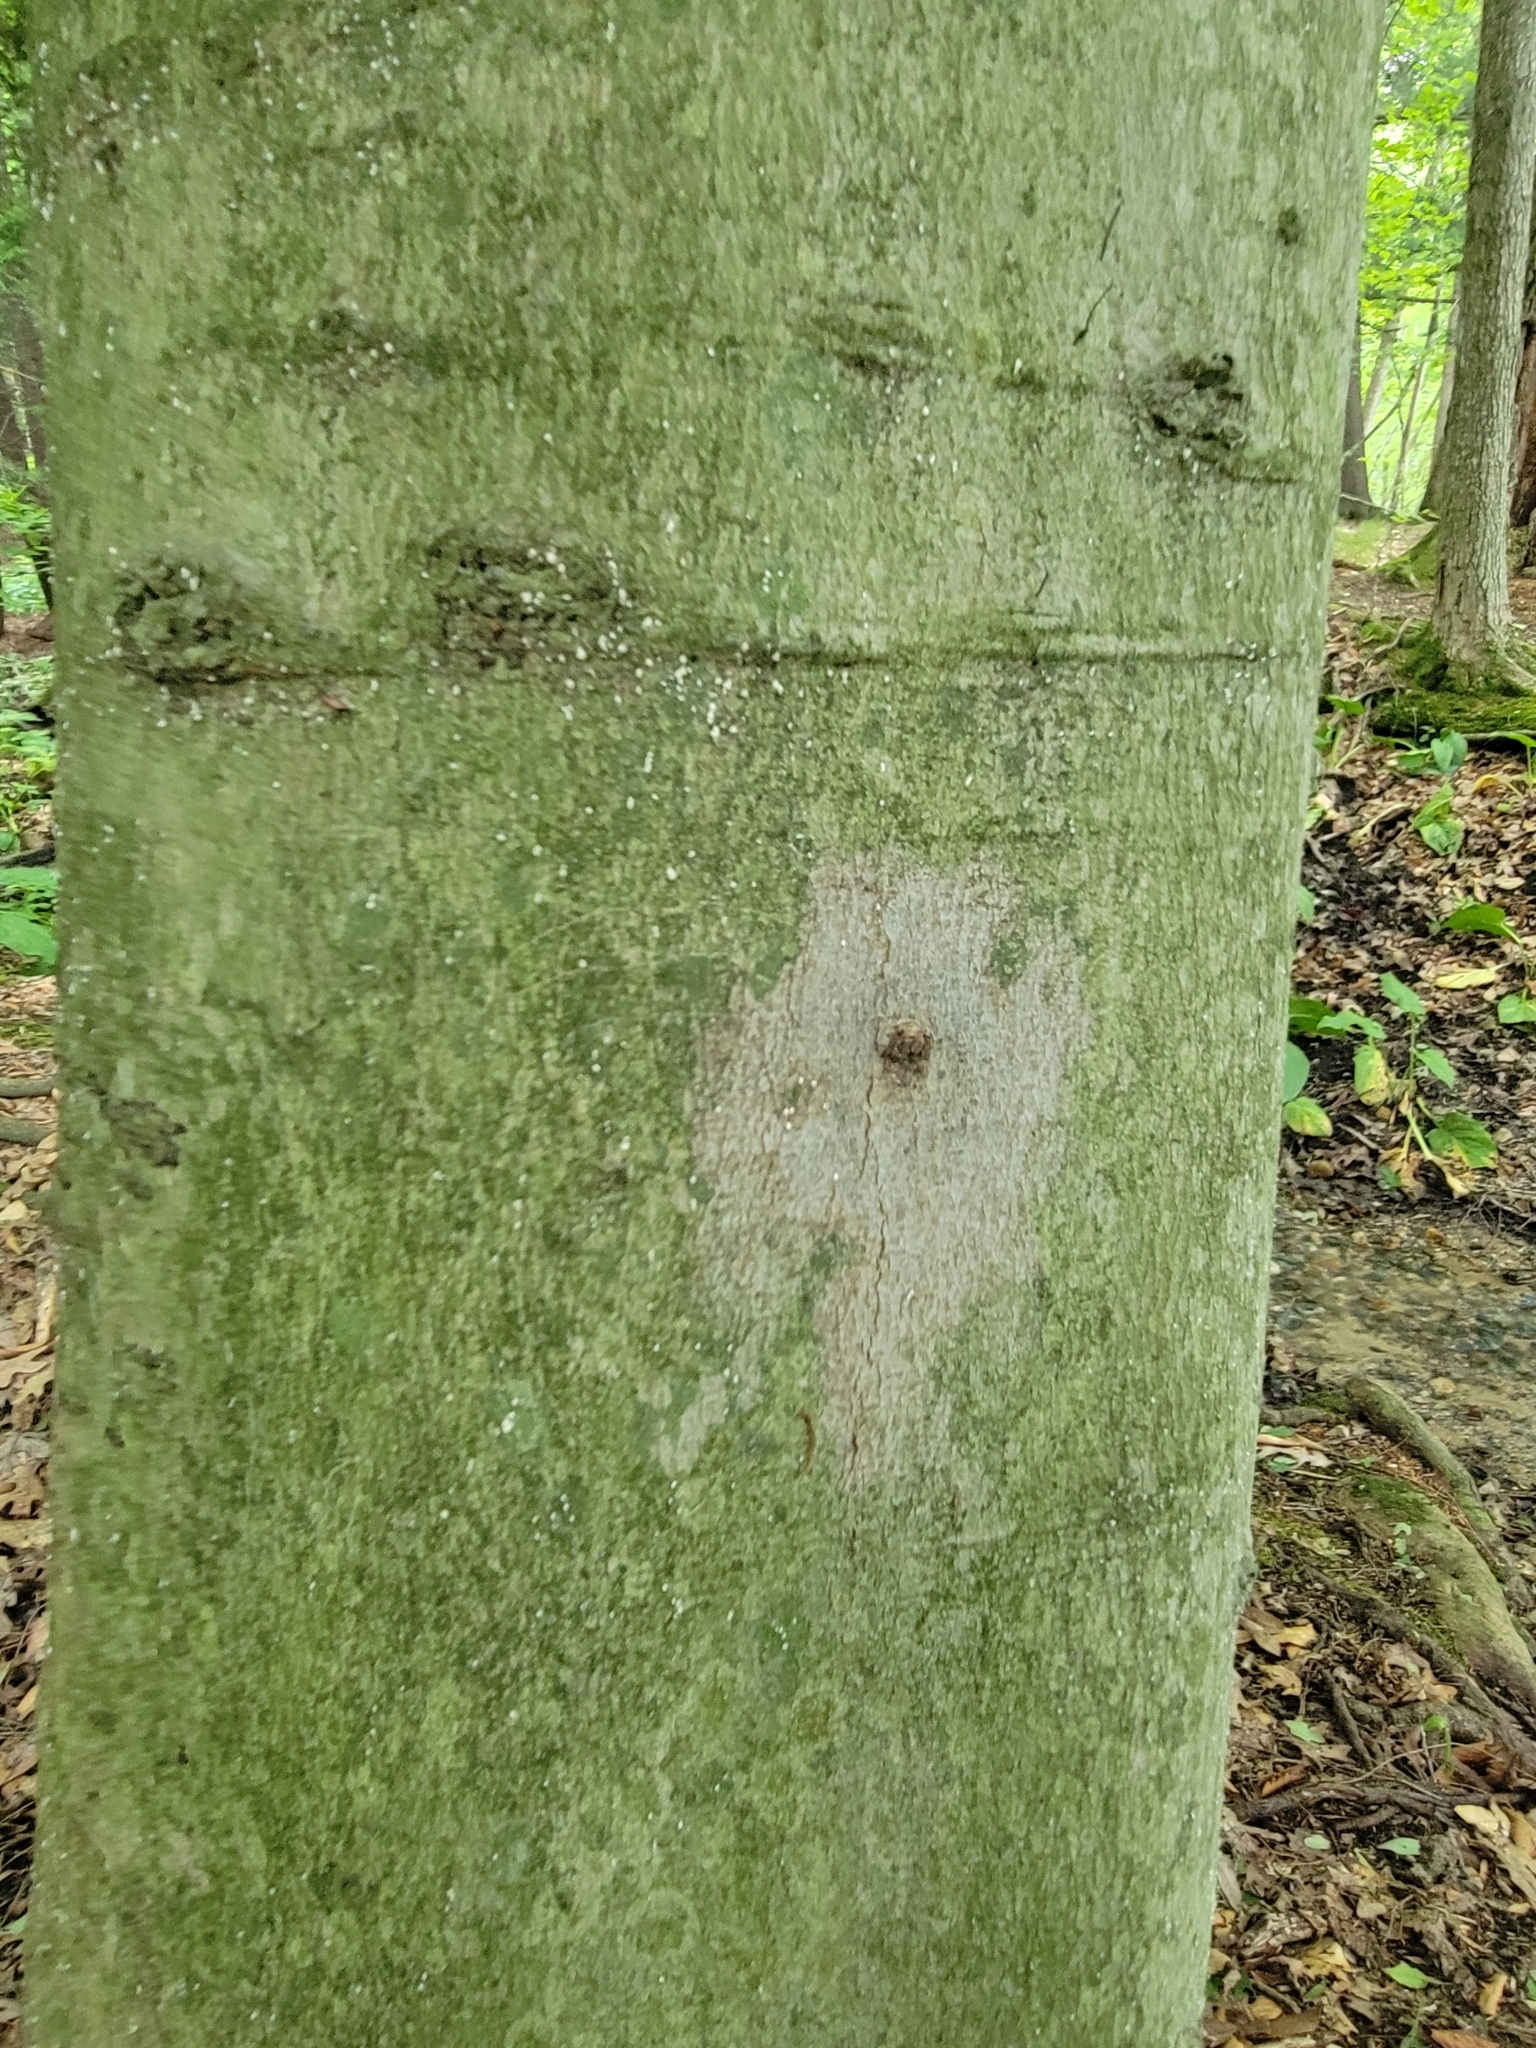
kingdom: Animalia
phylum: Arthropoda
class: Insecta
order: Hemiptera
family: Eriococcidae
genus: Cryptococcus
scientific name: Cryptococcus fagisuga
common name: Beech scale
